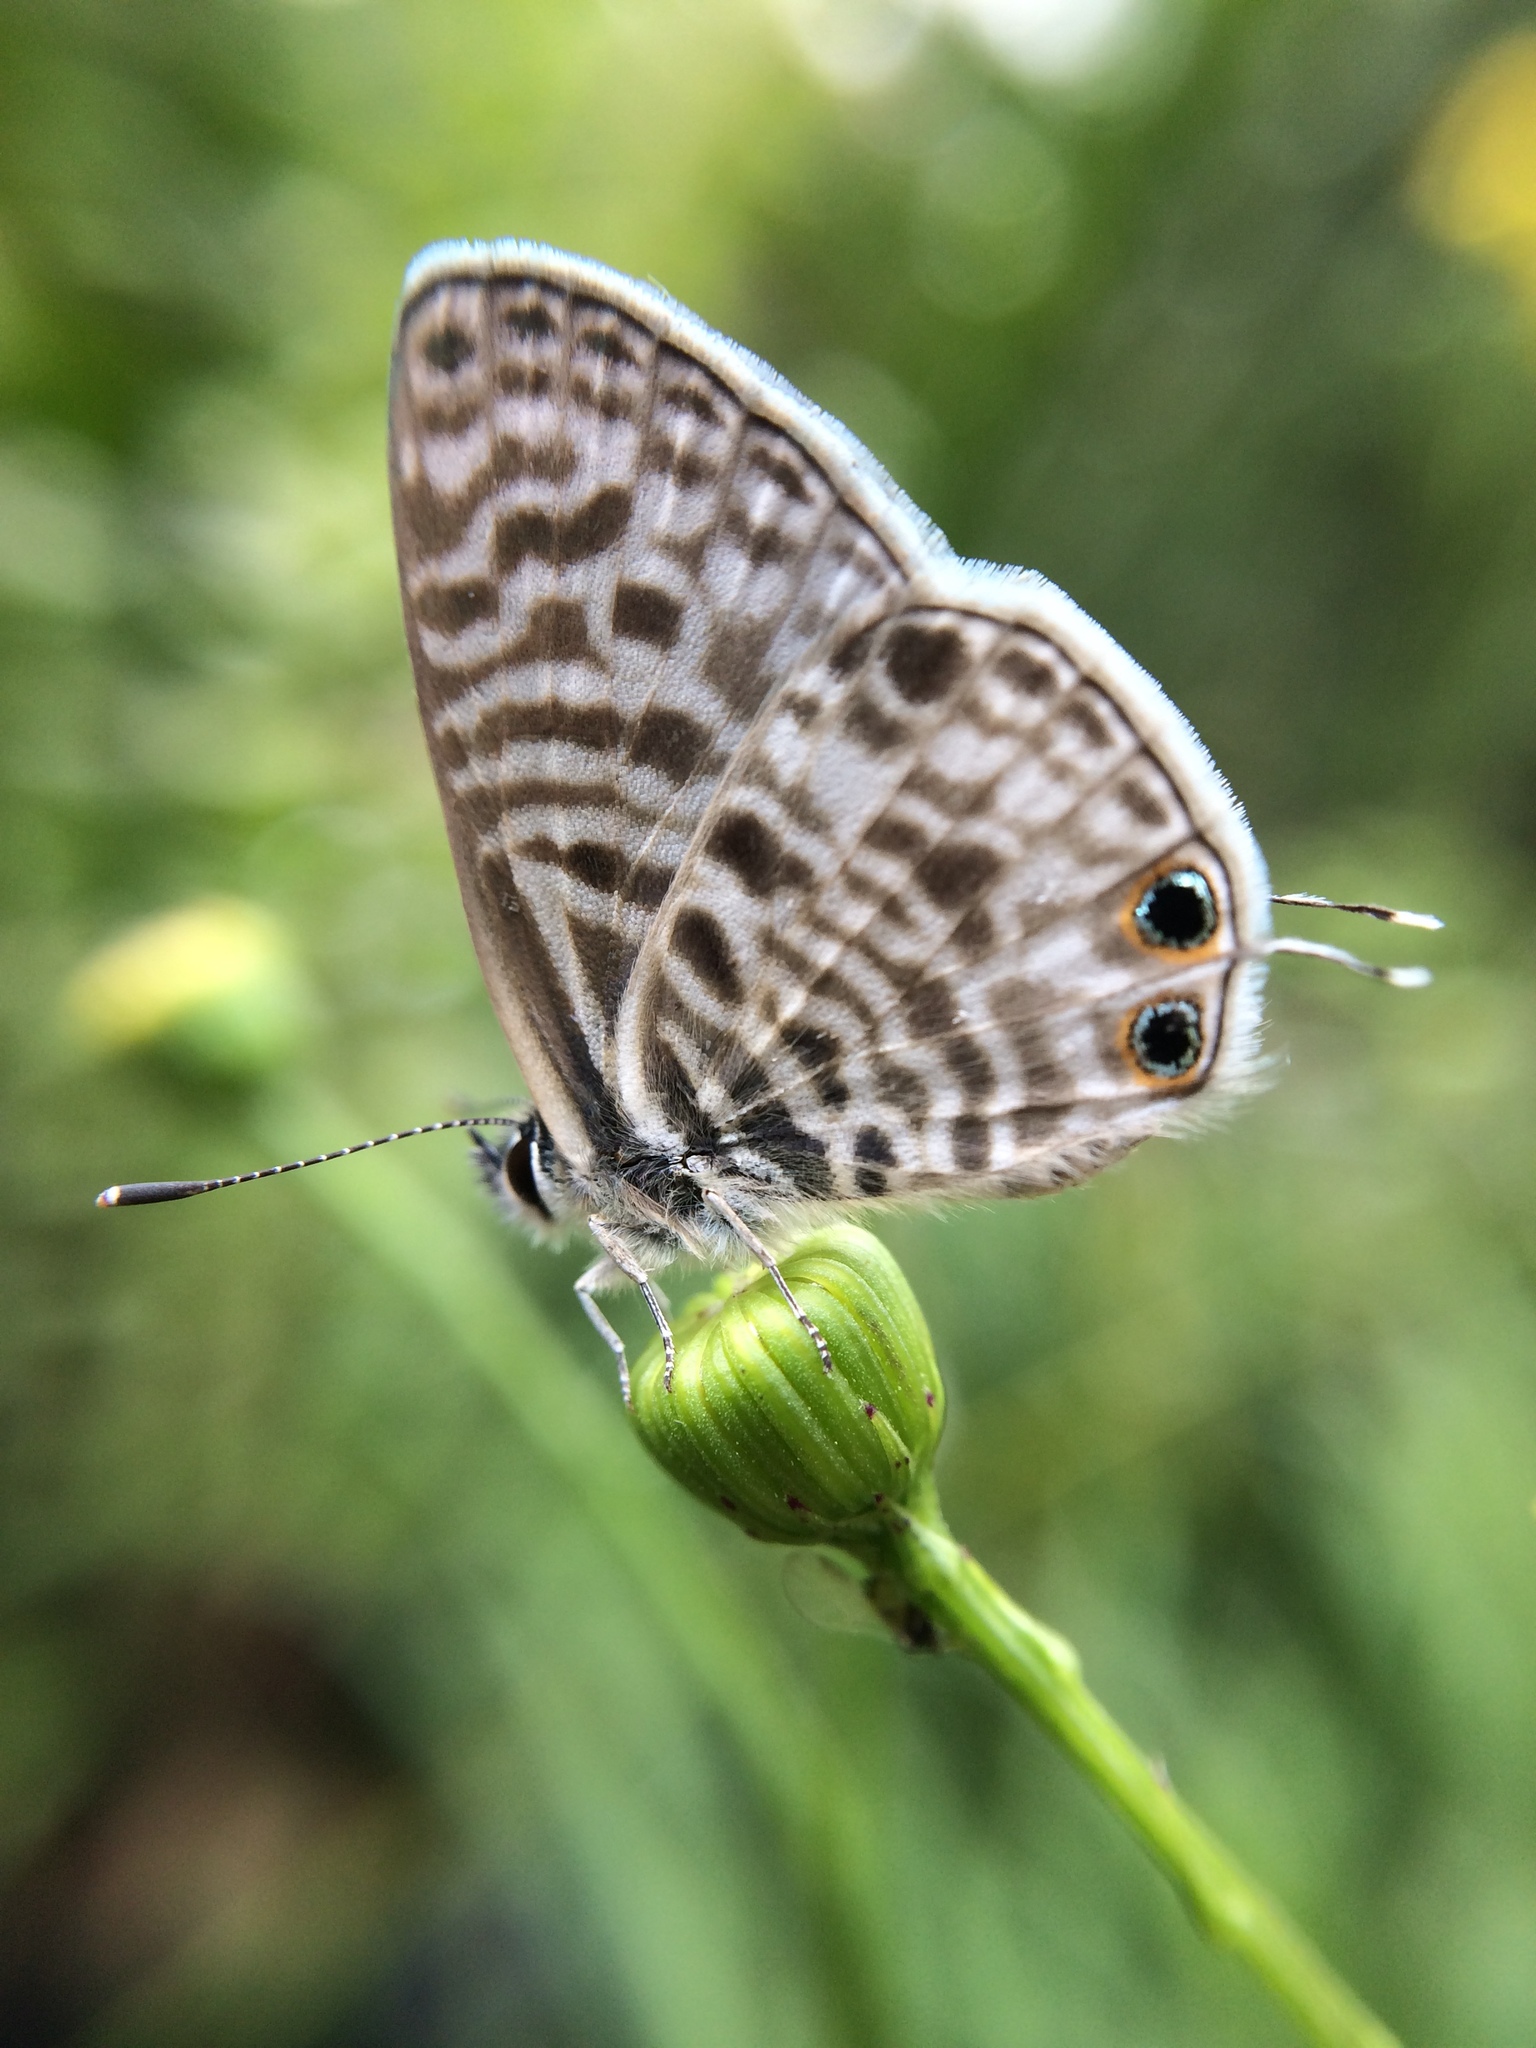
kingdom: Animalia
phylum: Arthropoda
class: Insecta
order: Lepidoptera
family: Lycaenidae
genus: Leptotes
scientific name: Leptotes
